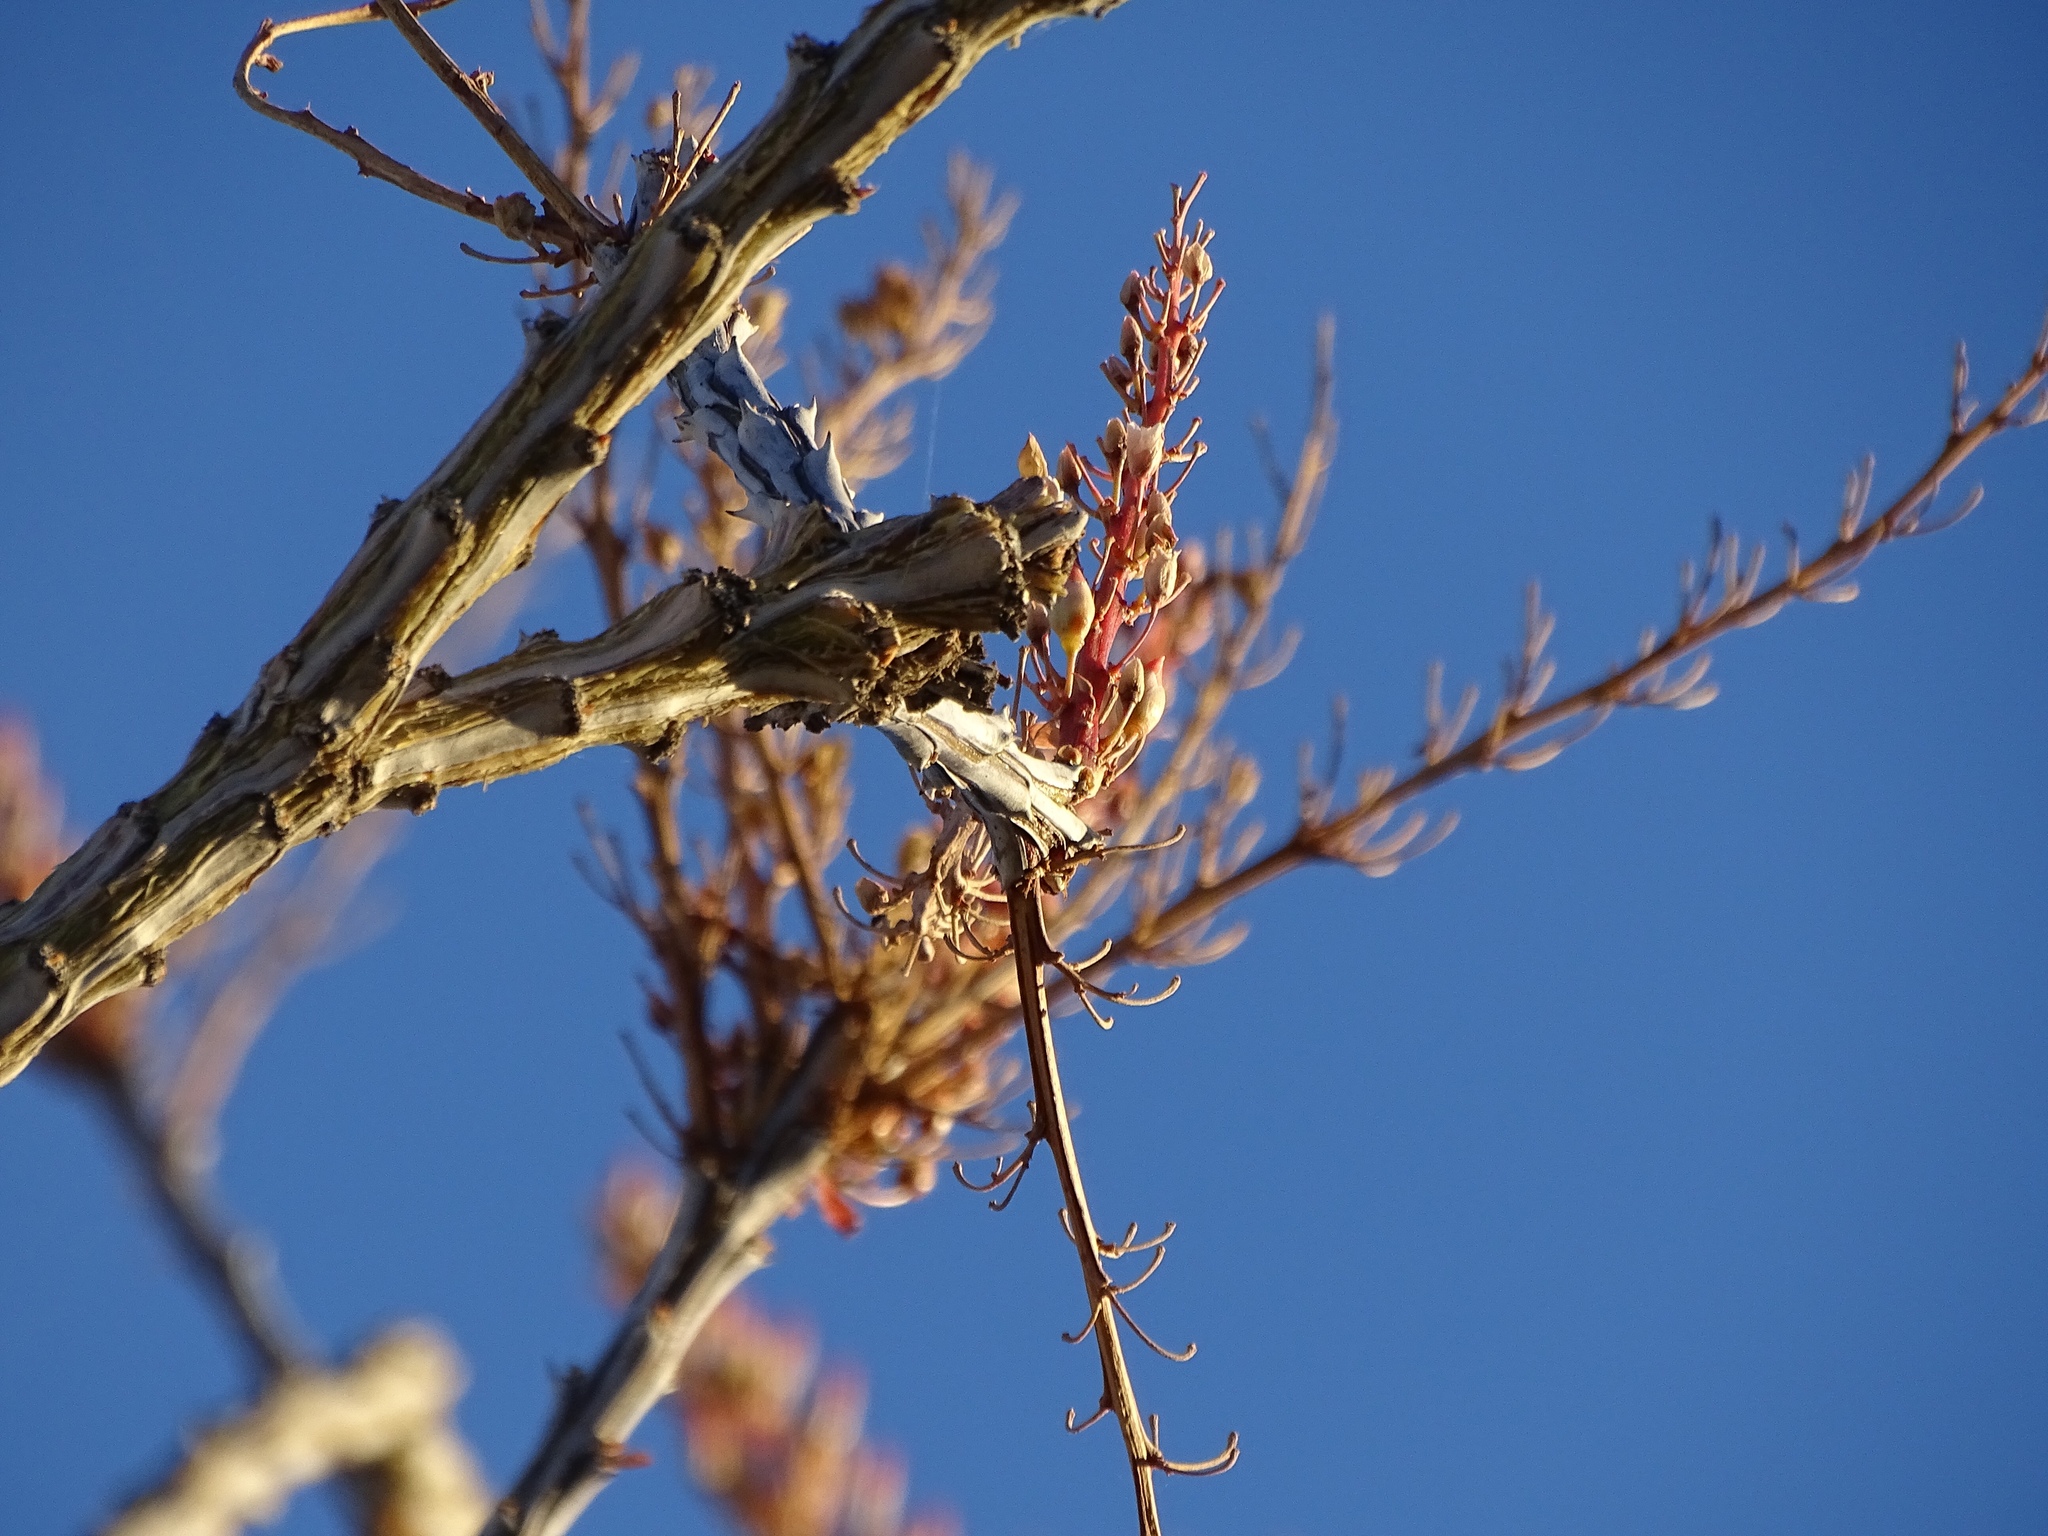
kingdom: Plantae
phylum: Tracheophyta
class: Magnoliopsida
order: Ericales
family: Fouquieriaceae
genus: Fouquieria
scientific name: Fouquieria splendens
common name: Vine-cactus
